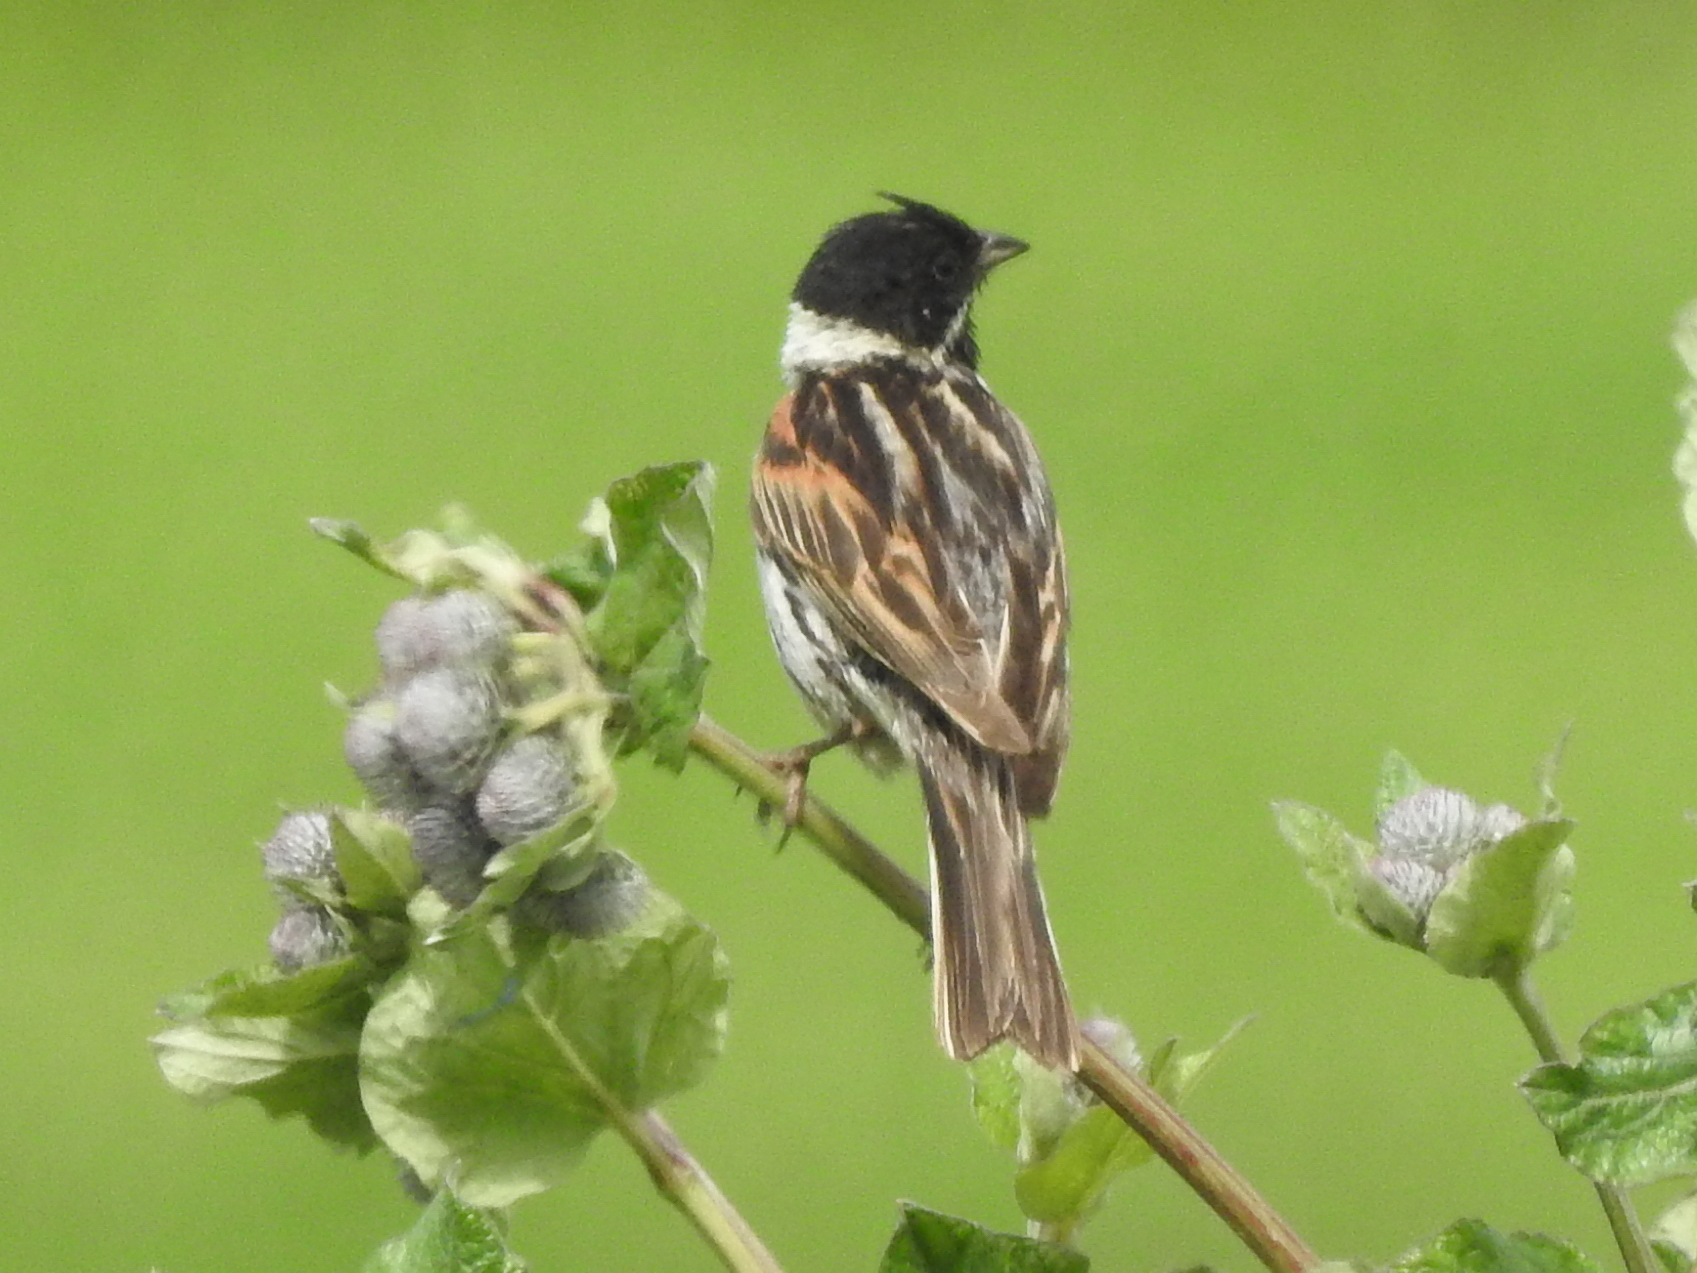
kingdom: Animalia
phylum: Chordata
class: Aves
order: Passeriformes
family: Emberizidae
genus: Emberiza
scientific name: Emberiza schoeniclus
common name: Reed bunting
